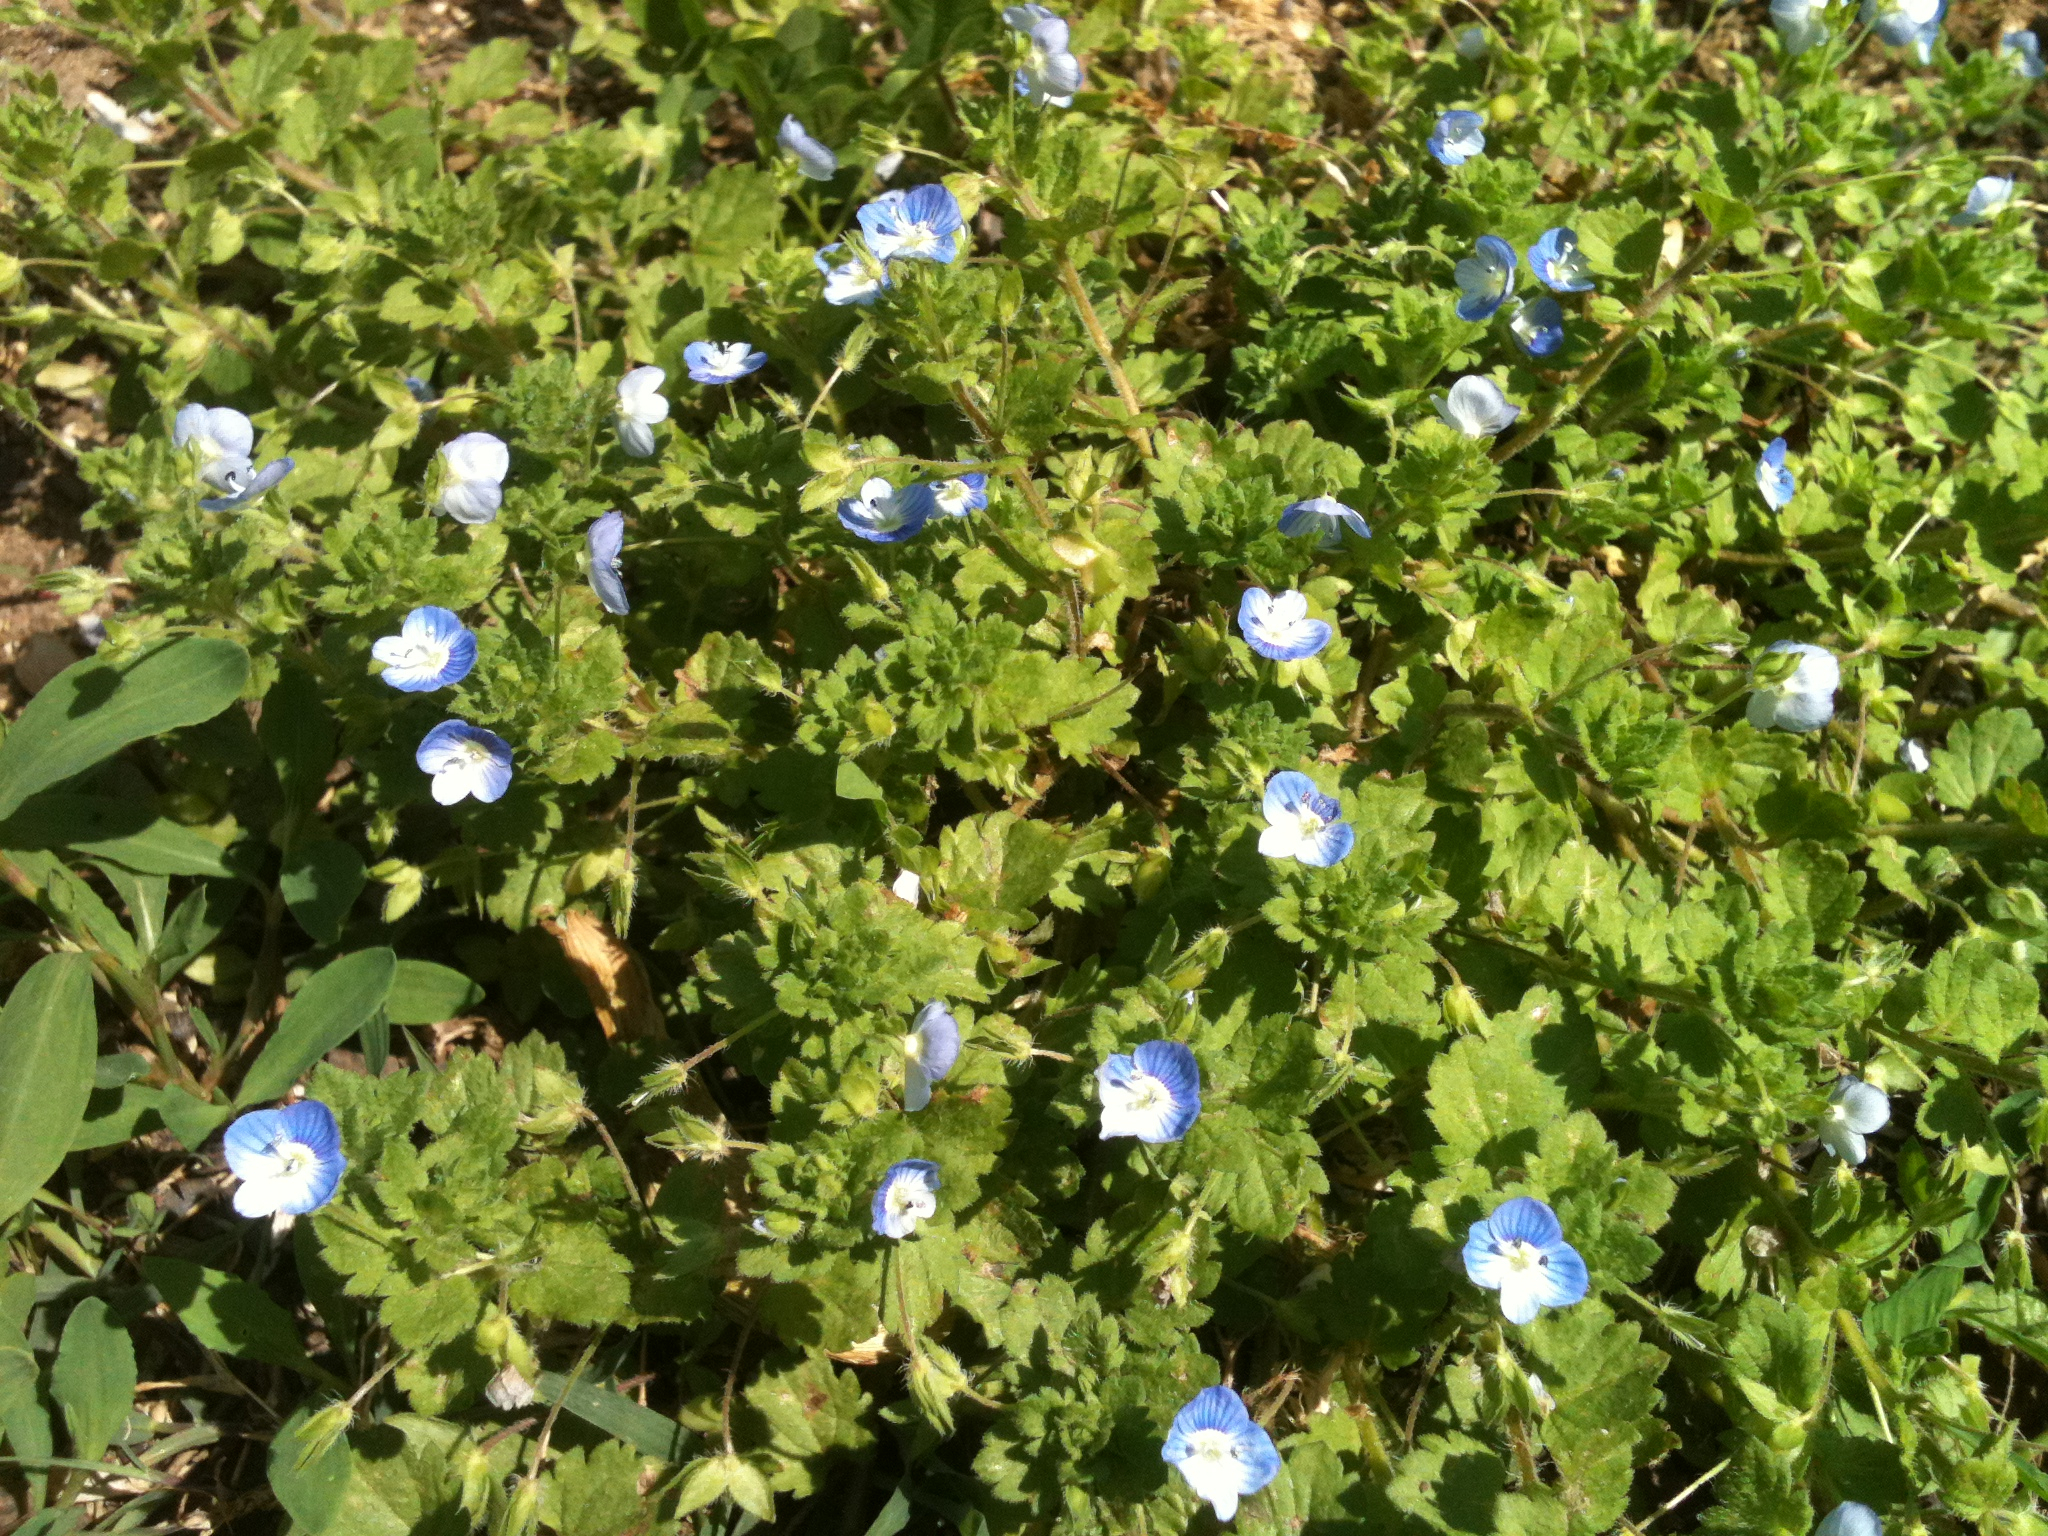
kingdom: Plantae
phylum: Tracheophyta
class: Magnoliopsida
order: Lamiales
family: Plantaginaceae
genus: Veronica
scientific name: Veronica persica
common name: Common field-speedwell
